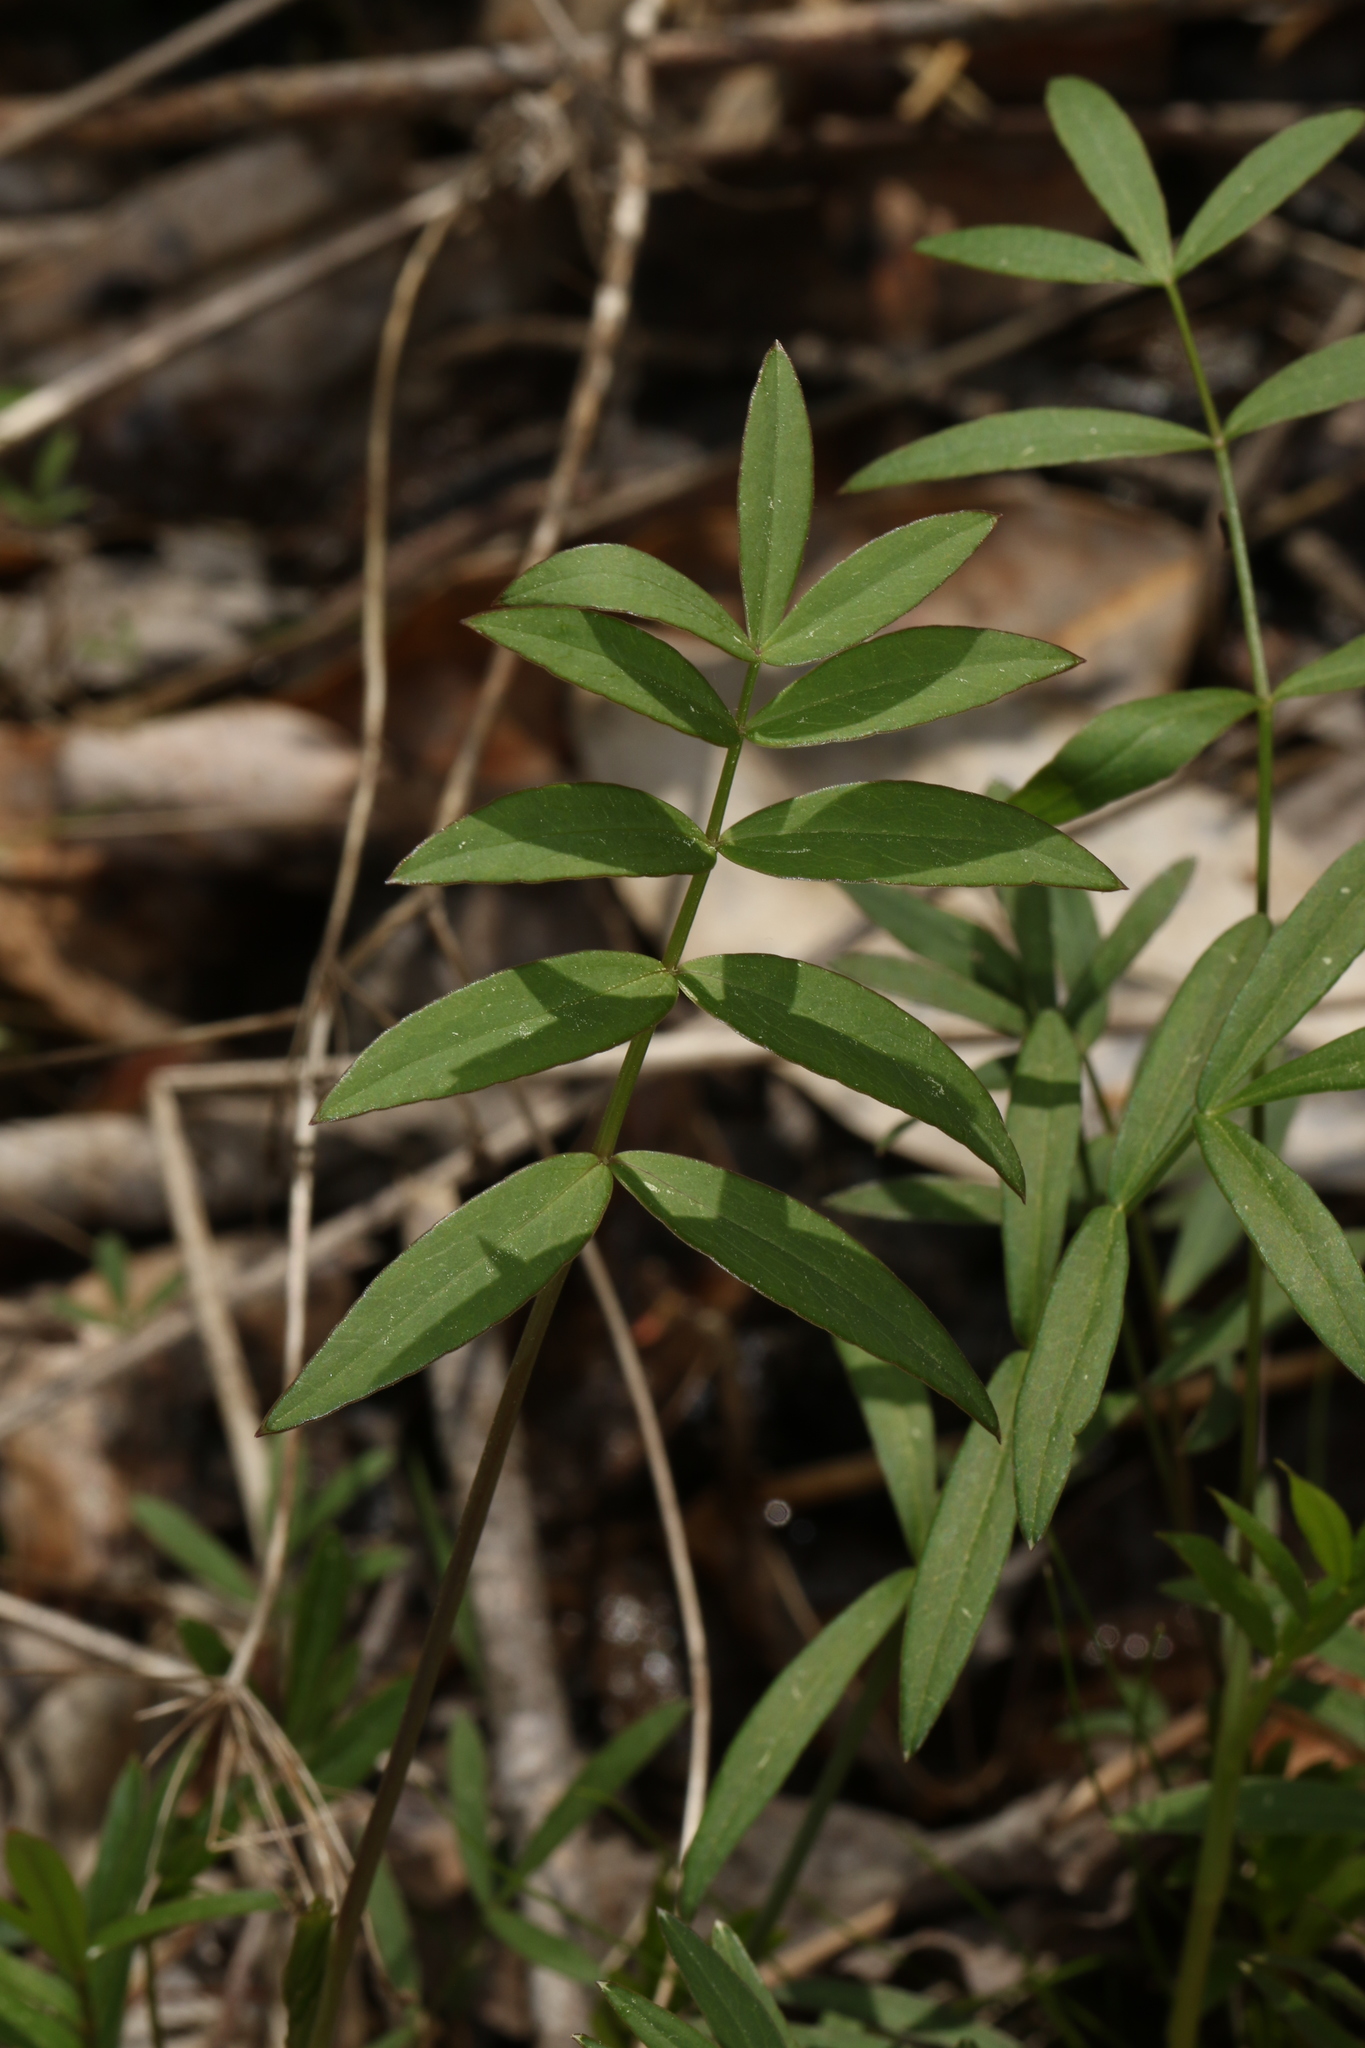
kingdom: Plantae
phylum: Tracheophyta
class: Magnoliopsida
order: Ericales
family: Polemoniaceae
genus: Polemonium
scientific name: Polemonium reptans
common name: Creeping jacob's-ladder
